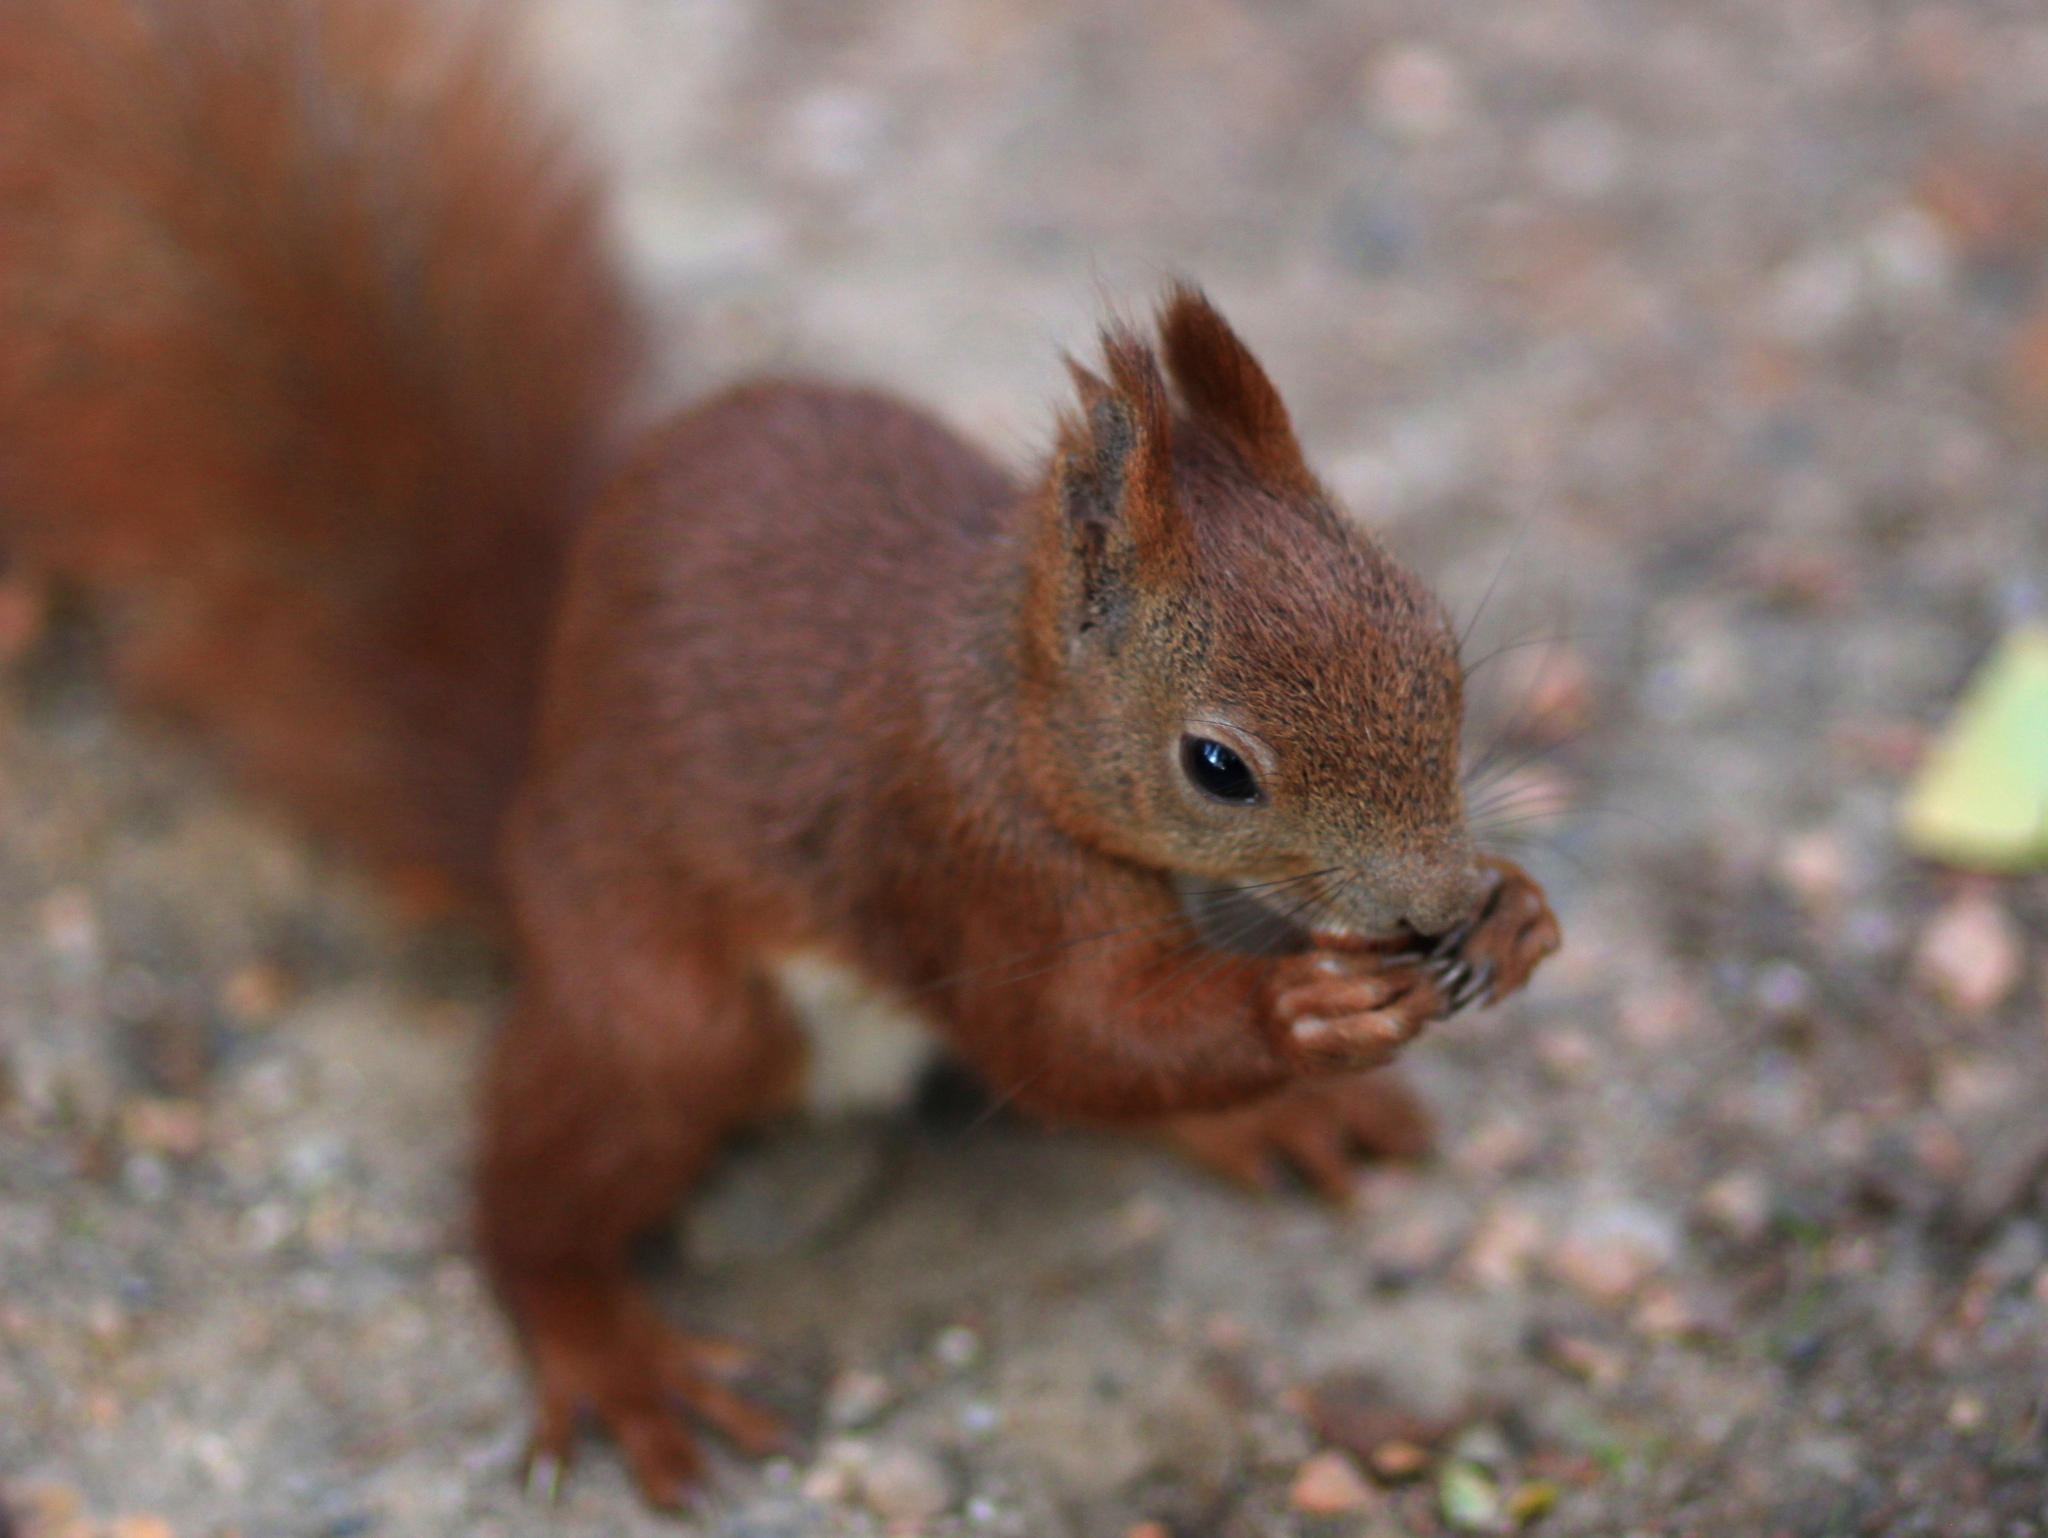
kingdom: Animalia
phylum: Chordata
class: Mammalia
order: Rodentia
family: Sciuridae
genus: Sciurus
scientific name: Sciurus vulgaris
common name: Eurasian red squirrel
